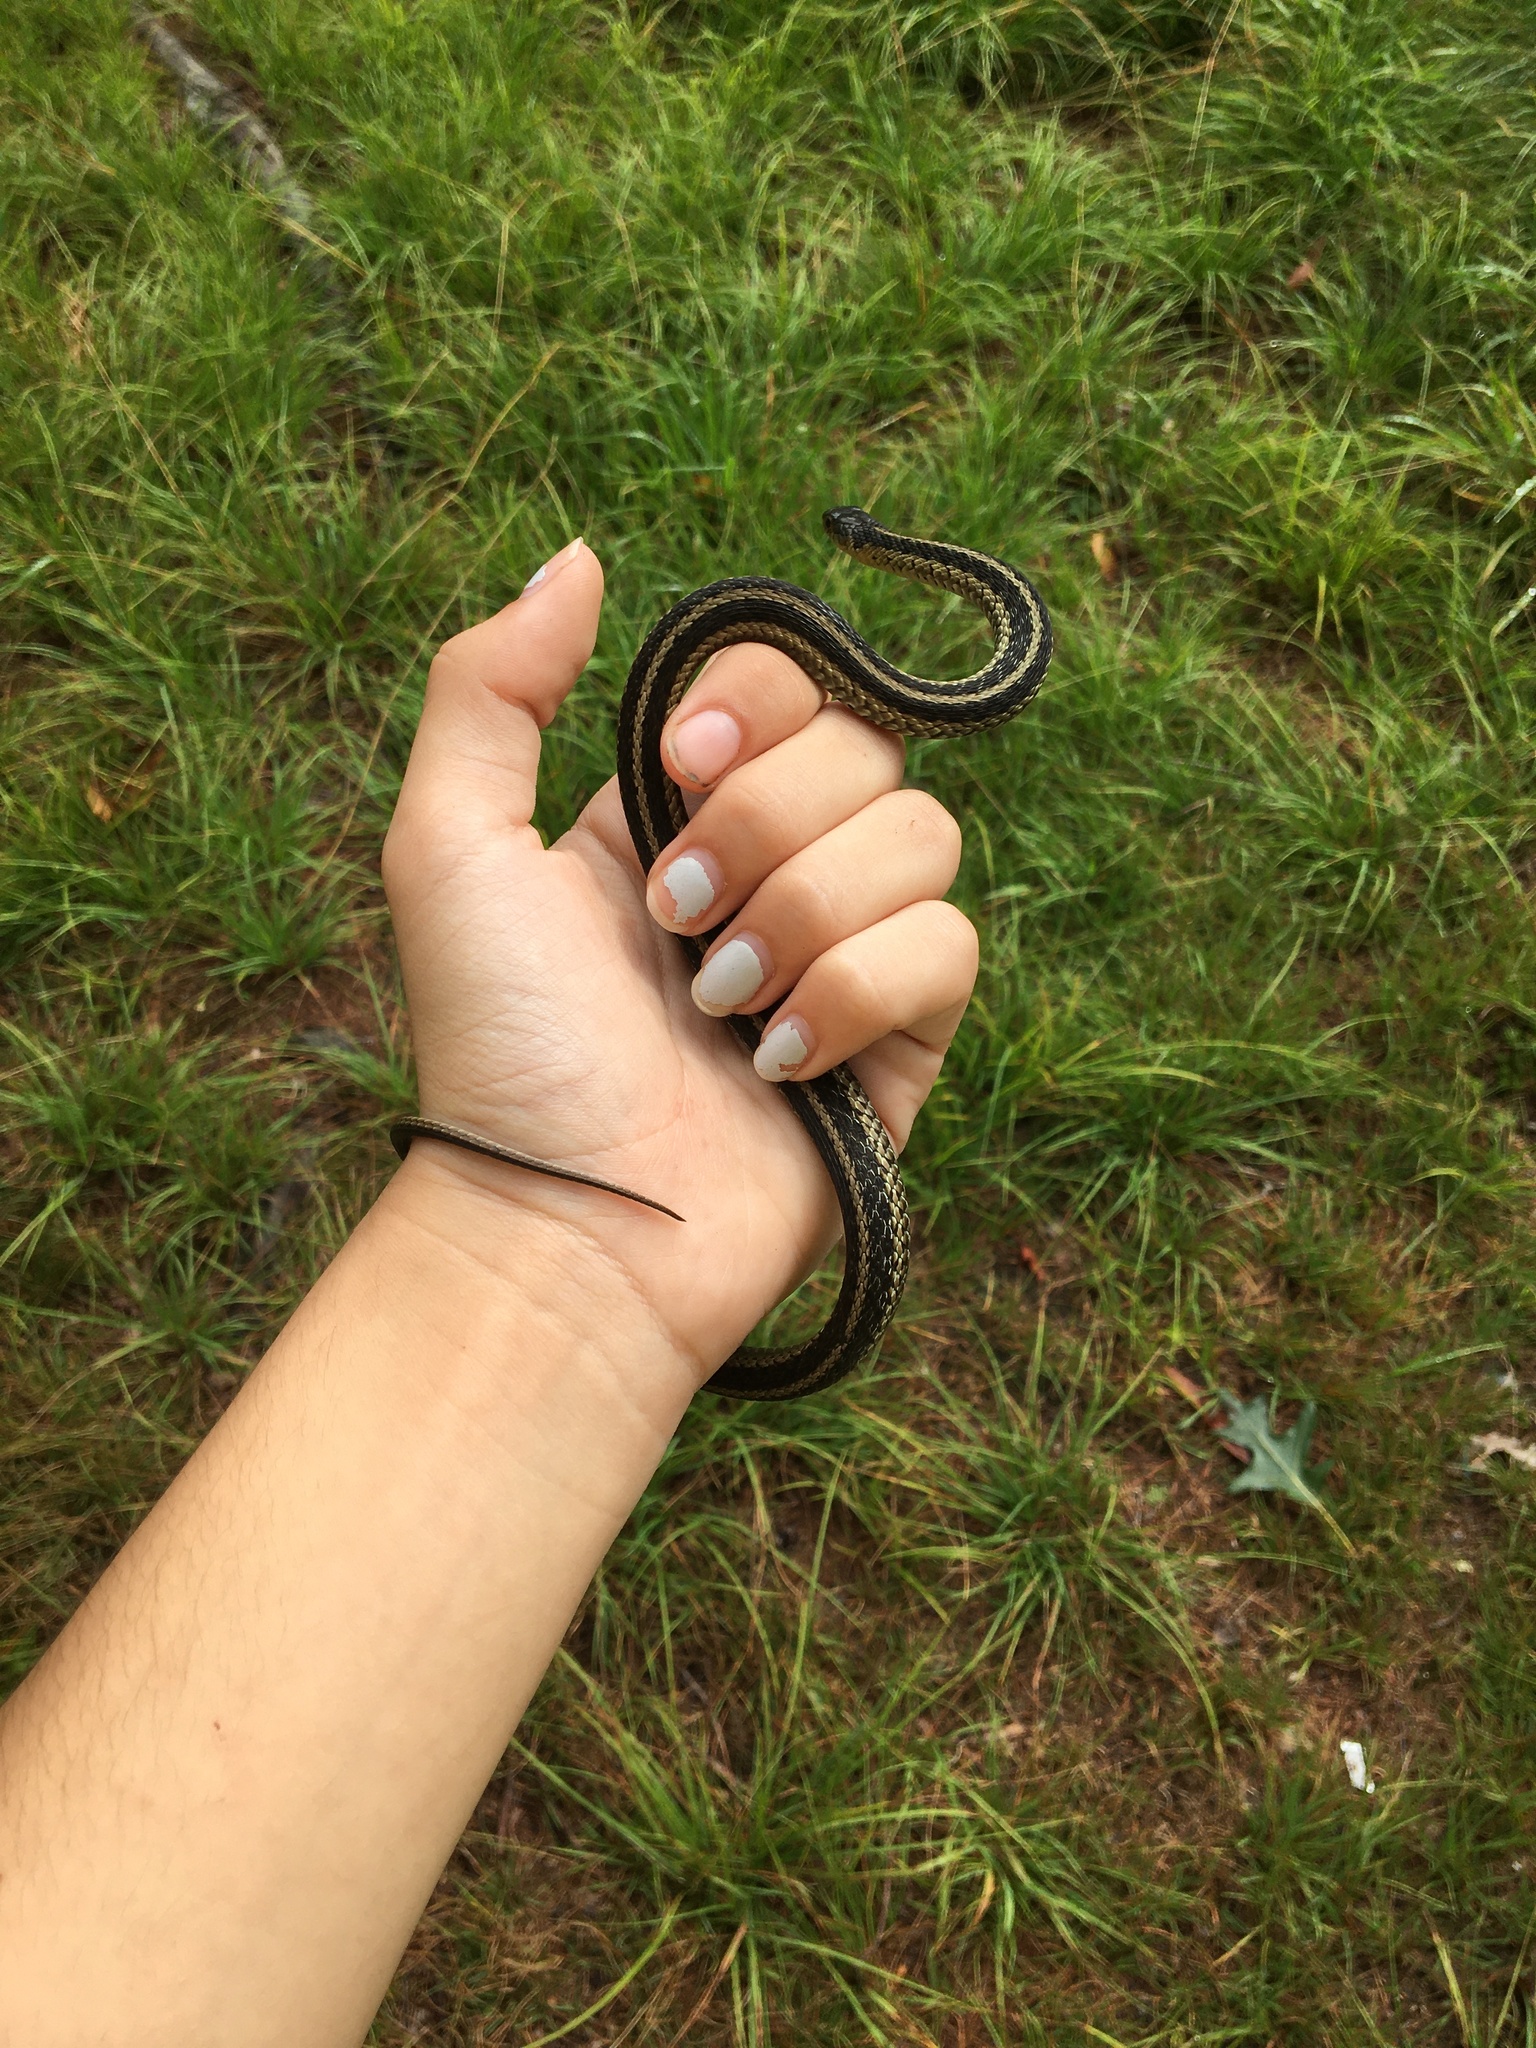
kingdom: Animalia
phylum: Chordata
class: Squamata
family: Colubridae
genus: Thamnophis
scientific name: Thamnophis sirtalis
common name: Common garter snake
